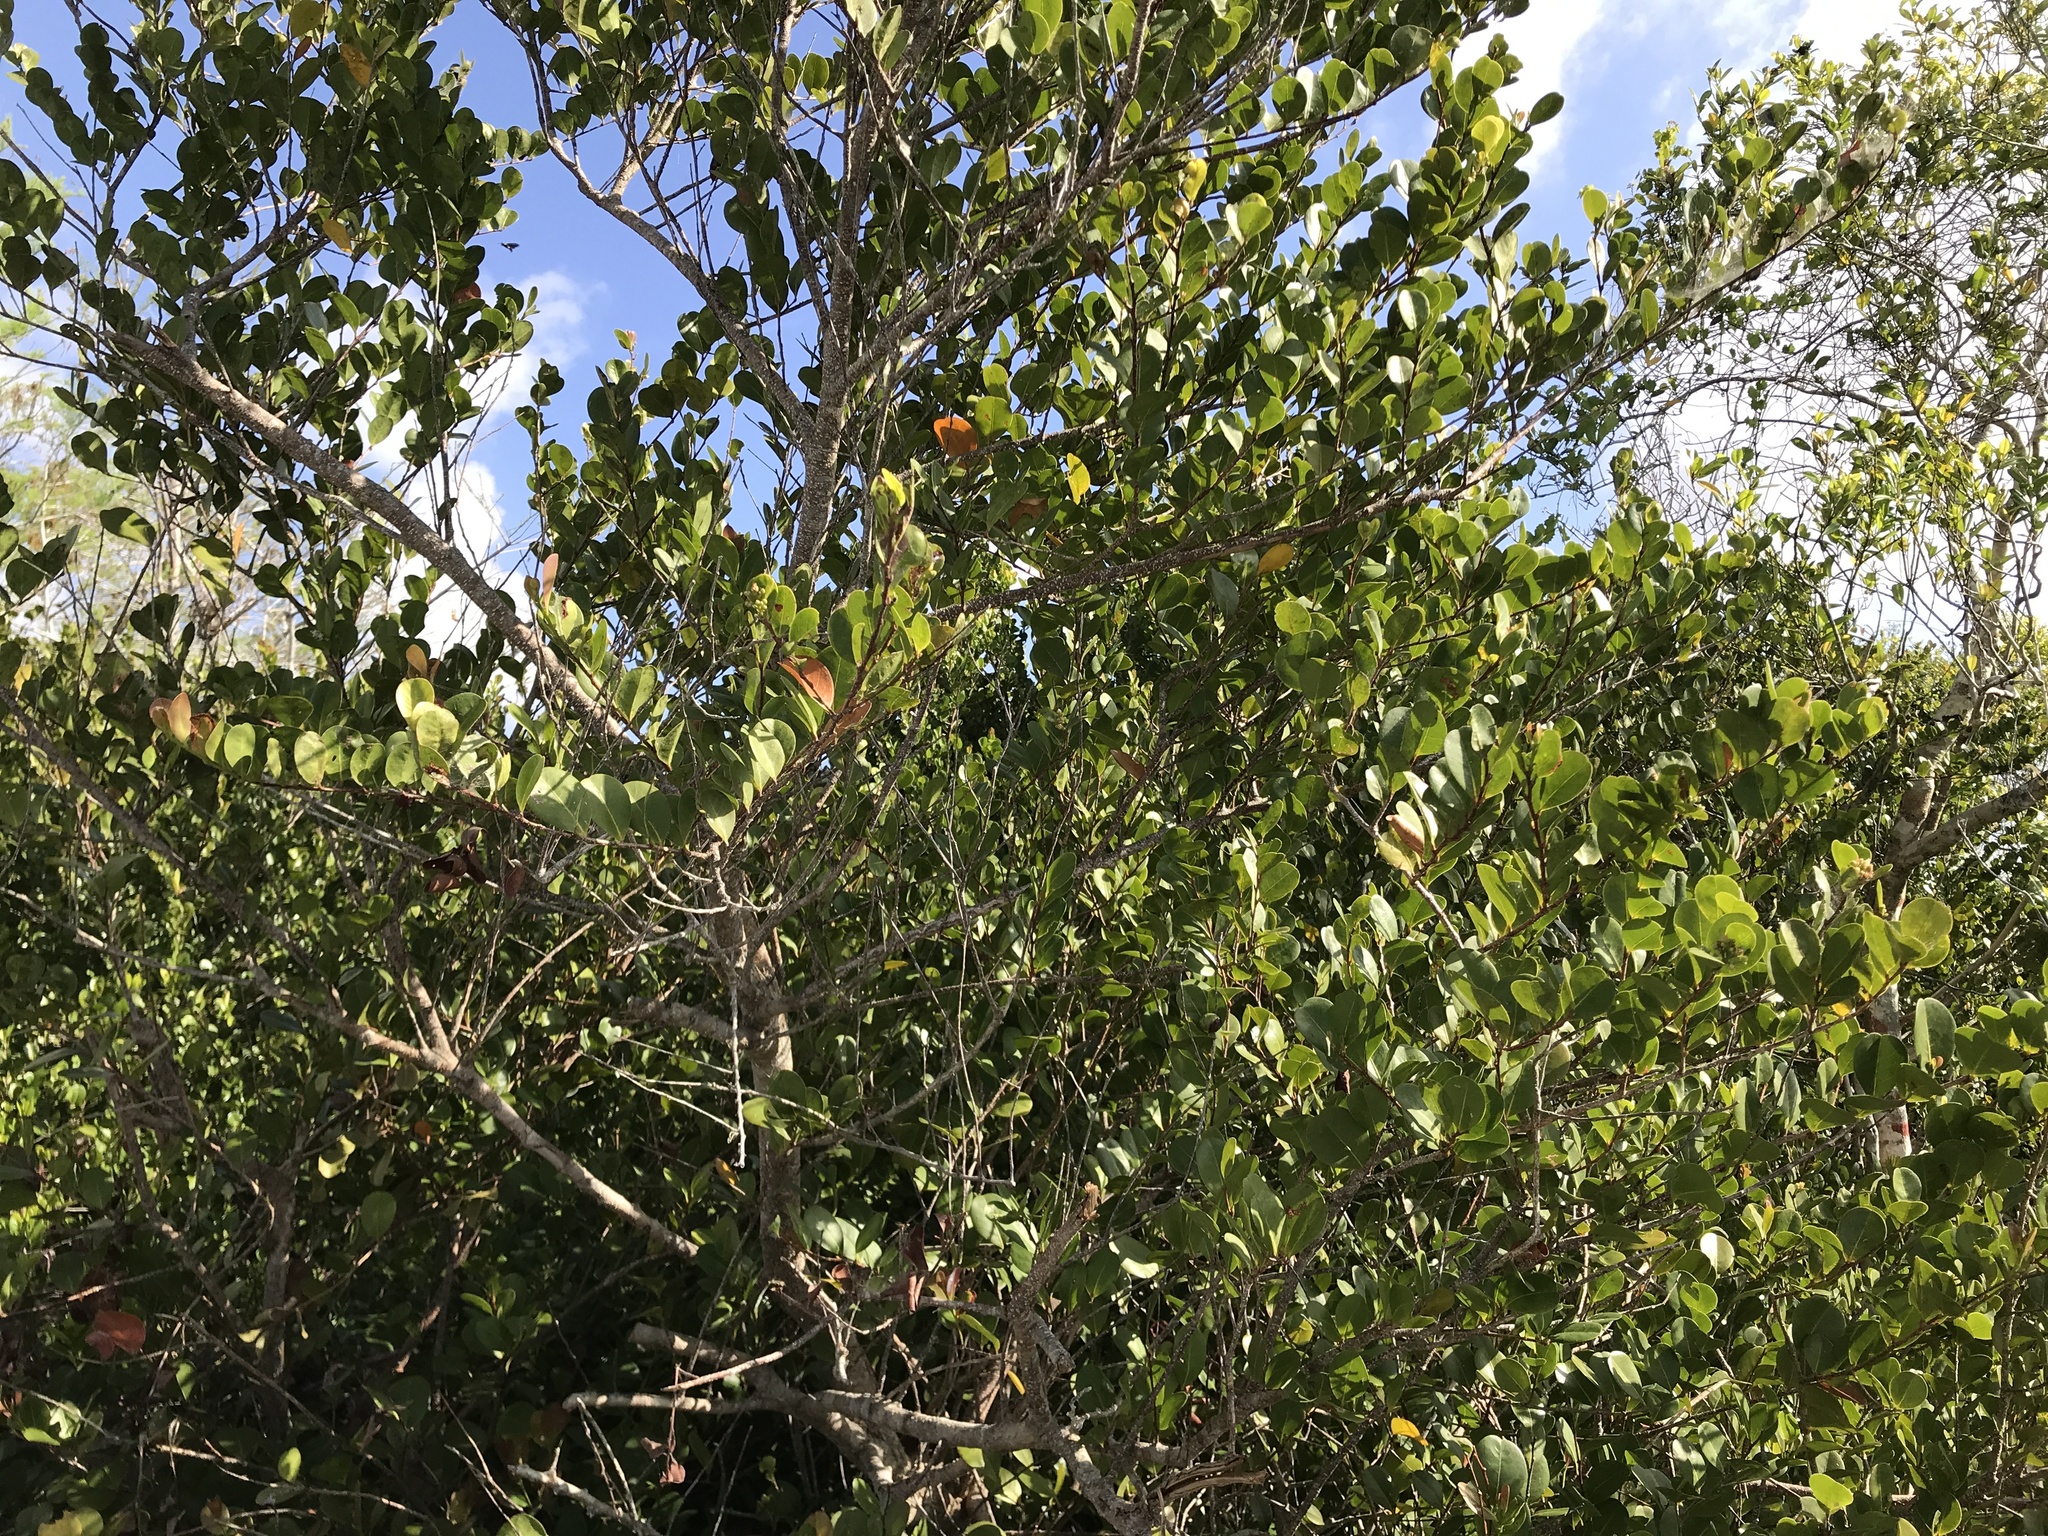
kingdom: Plantae
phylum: Tracheophyta
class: Magnoliopsida
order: Malpighiales
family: Chrysobalanaceae
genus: Chrysobalanus
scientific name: Chrysobalanus icaco
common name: Coco plum
